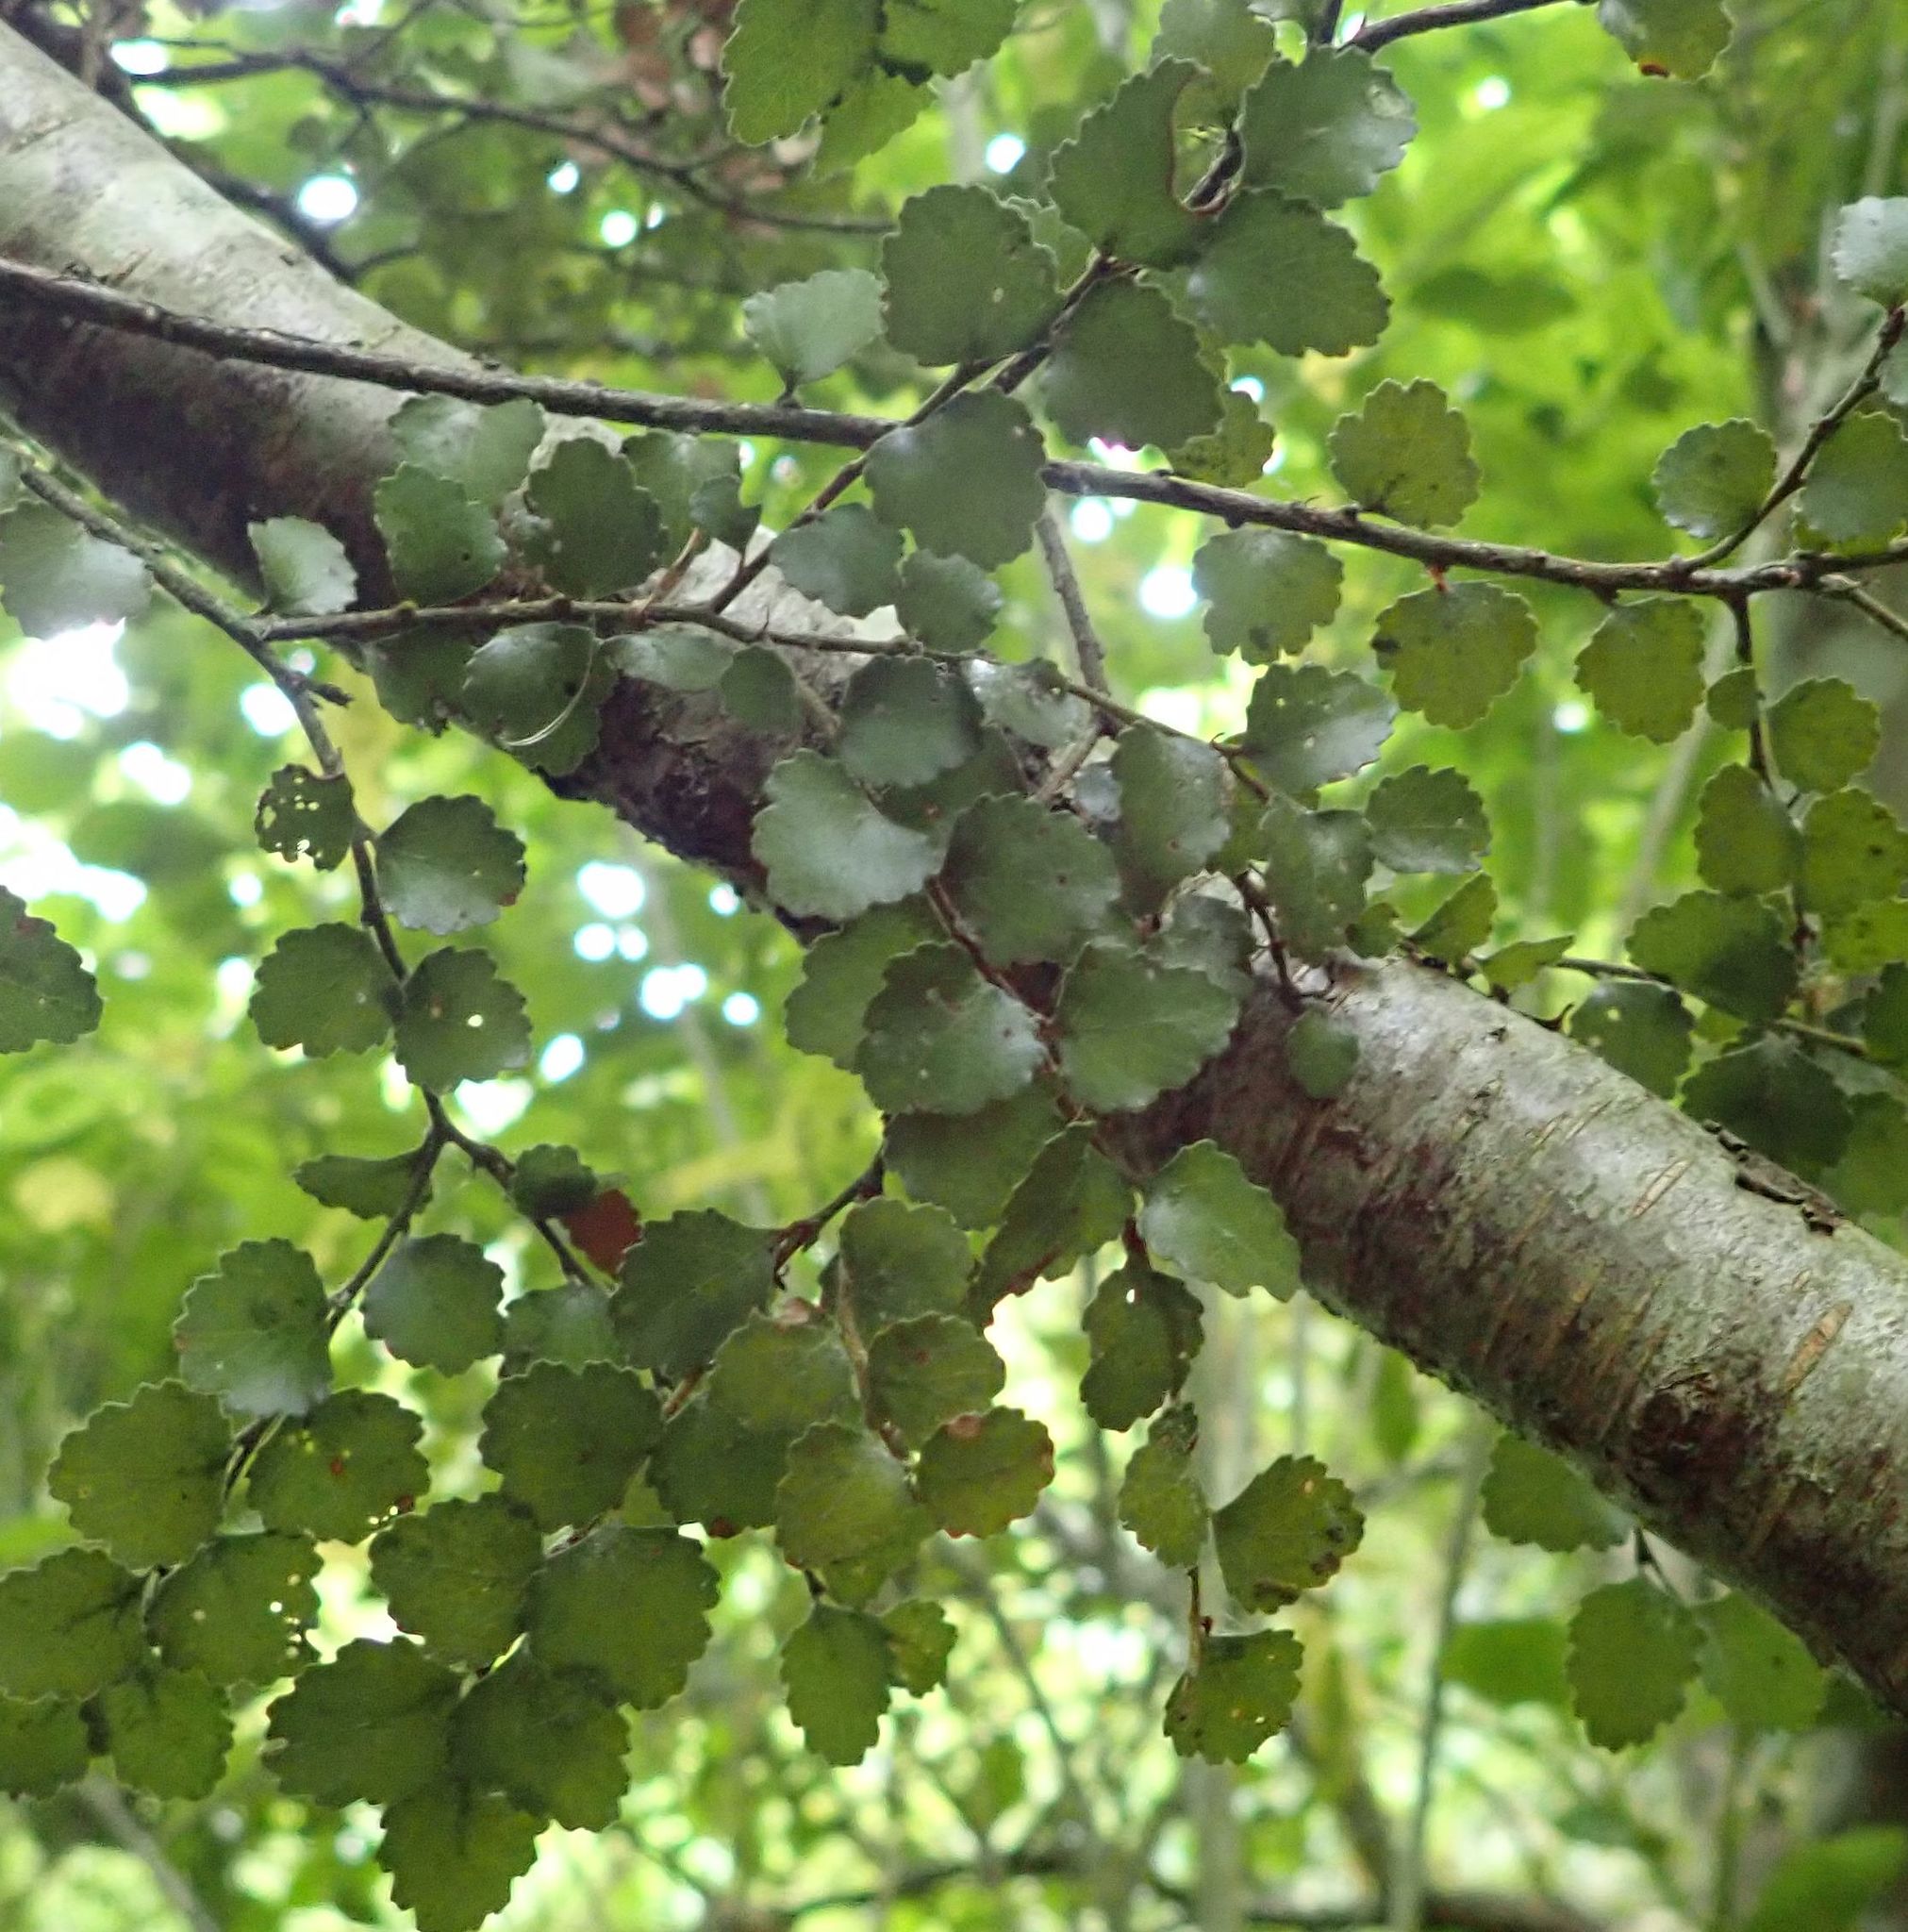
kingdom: Plantae
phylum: Tracheophyta
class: Magnoliopsida
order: Fagales
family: Nothofagaceae
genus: Nothofagus
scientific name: Nothofagus menziesii
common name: Silver beech
